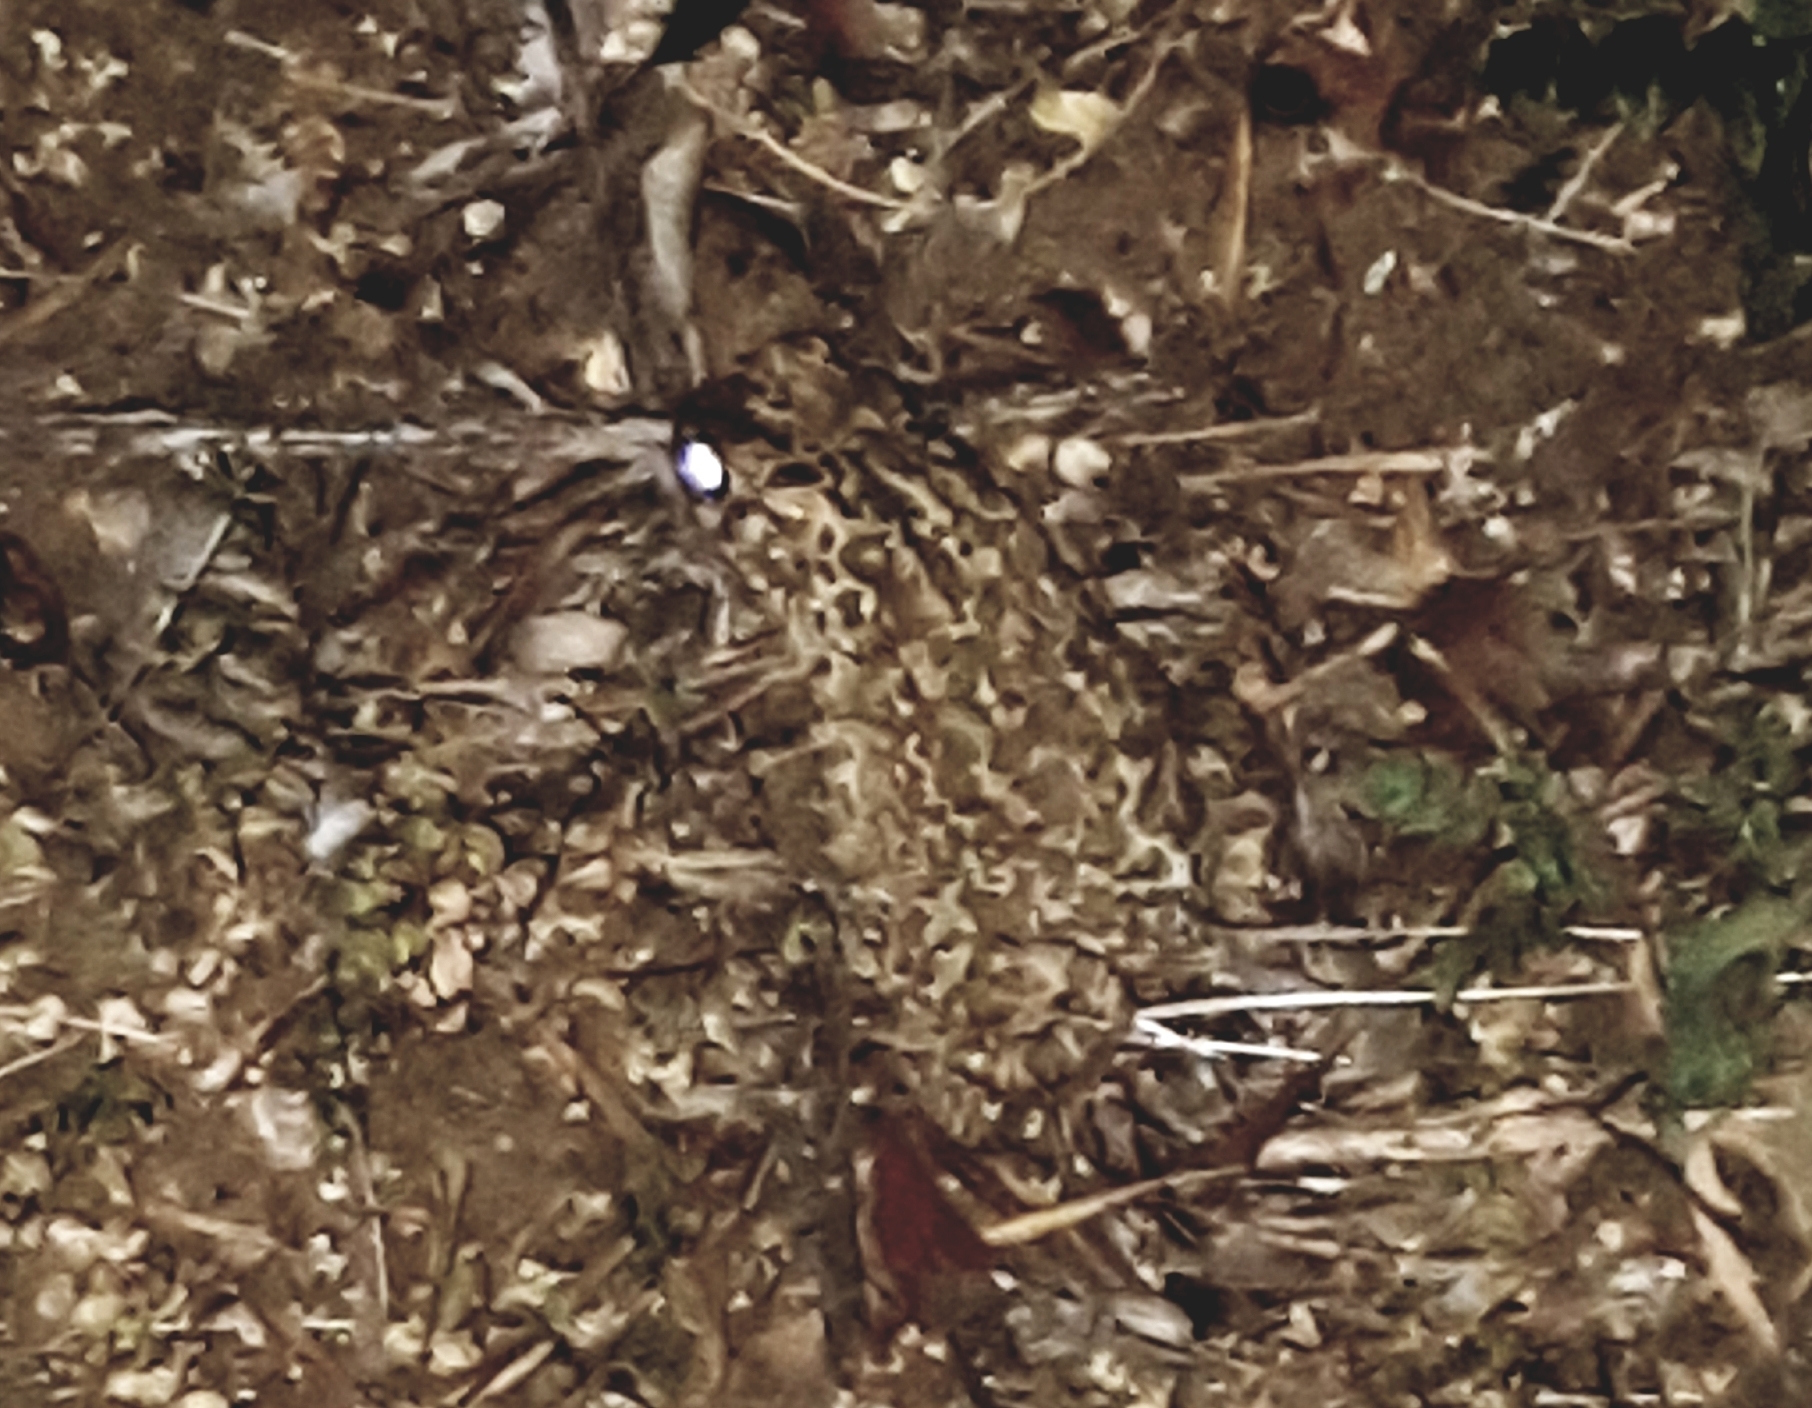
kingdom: Animalia
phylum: Chordata
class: Amphibia
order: Anura
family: Bufonidae
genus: Bufotes
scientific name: Bufotes viridis
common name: European green toad
